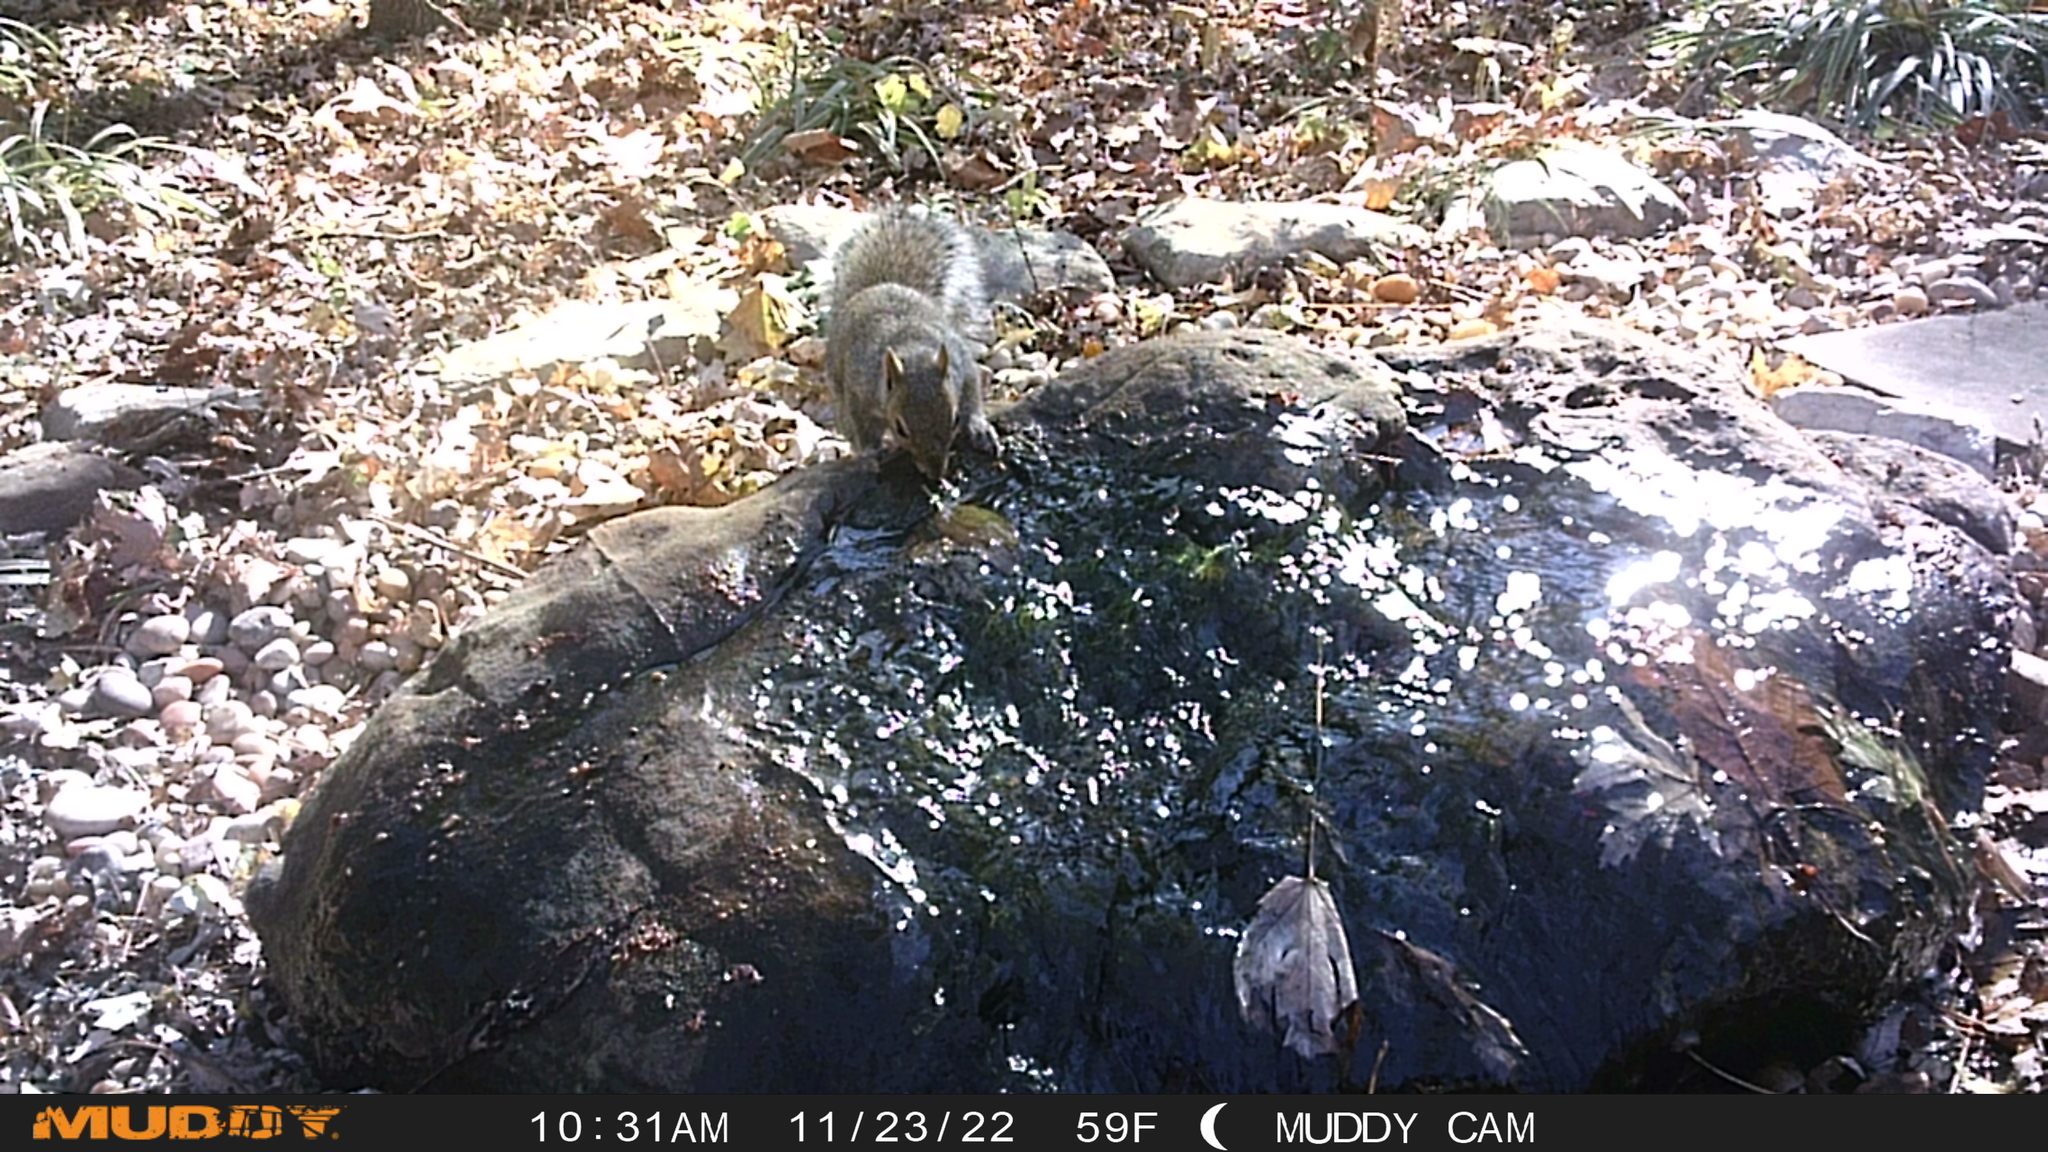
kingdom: Animalia
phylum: Chordata
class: Mammalia
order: Rodentia
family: Sciuridae
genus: Sciurus
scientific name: Sciurus carolinensis
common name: Eastern gray squirrel
